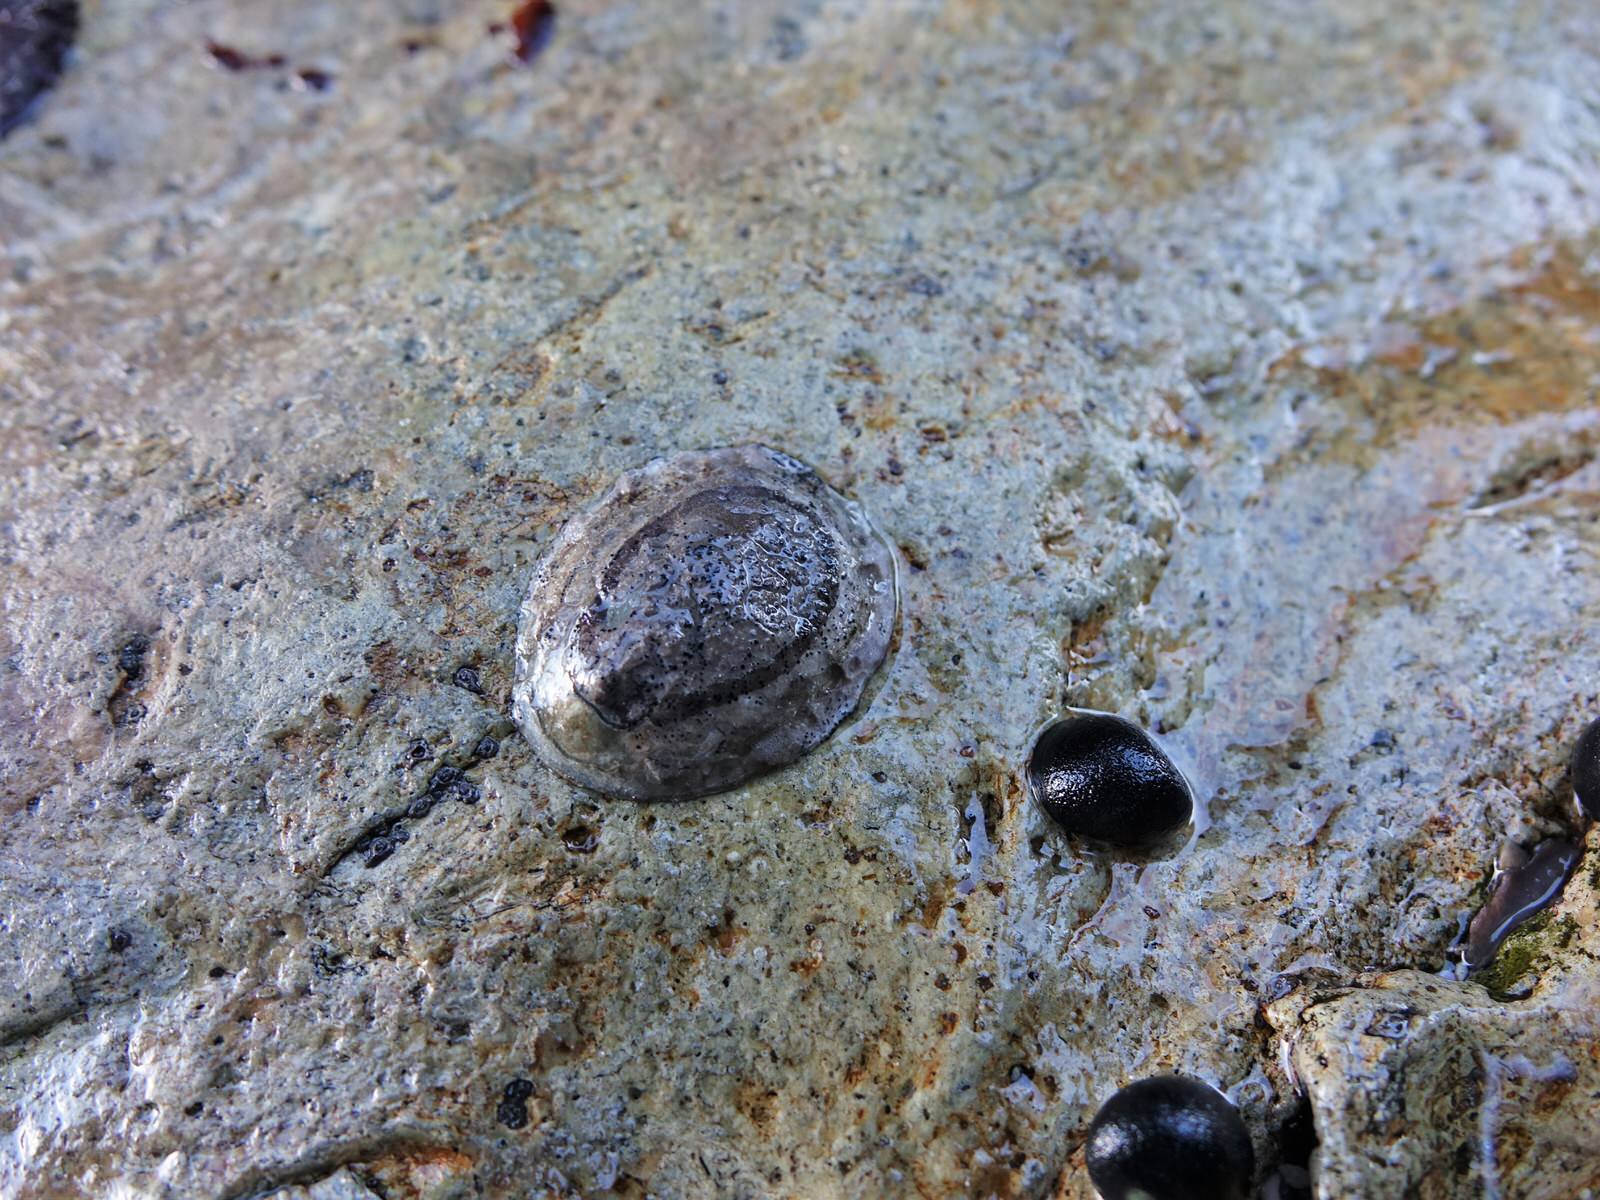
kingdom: Animalia
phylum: Mollusca
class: Gastropoda
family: Nacellidae
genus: Cellana
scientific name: Cellana radians
